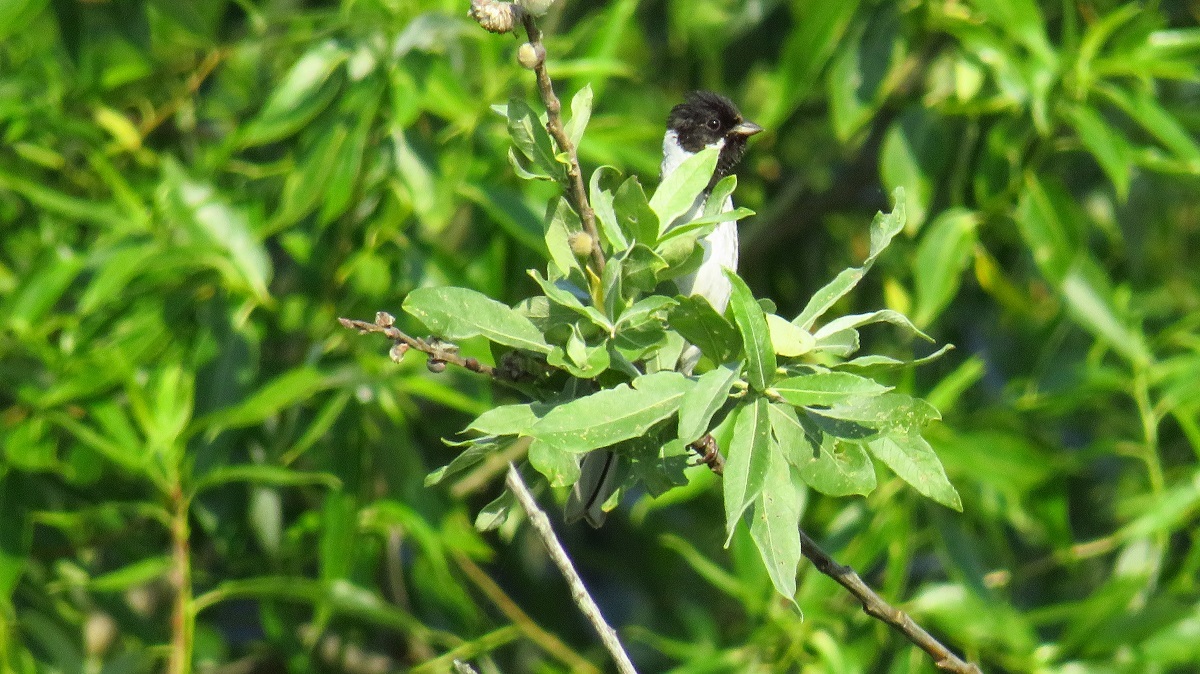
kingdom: Animalia
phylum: Chordata
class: Aves
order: Passeriformes
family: Emberizidae
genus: Emberiza
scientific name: Emberiza schoeniclus
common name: Reed bunting
